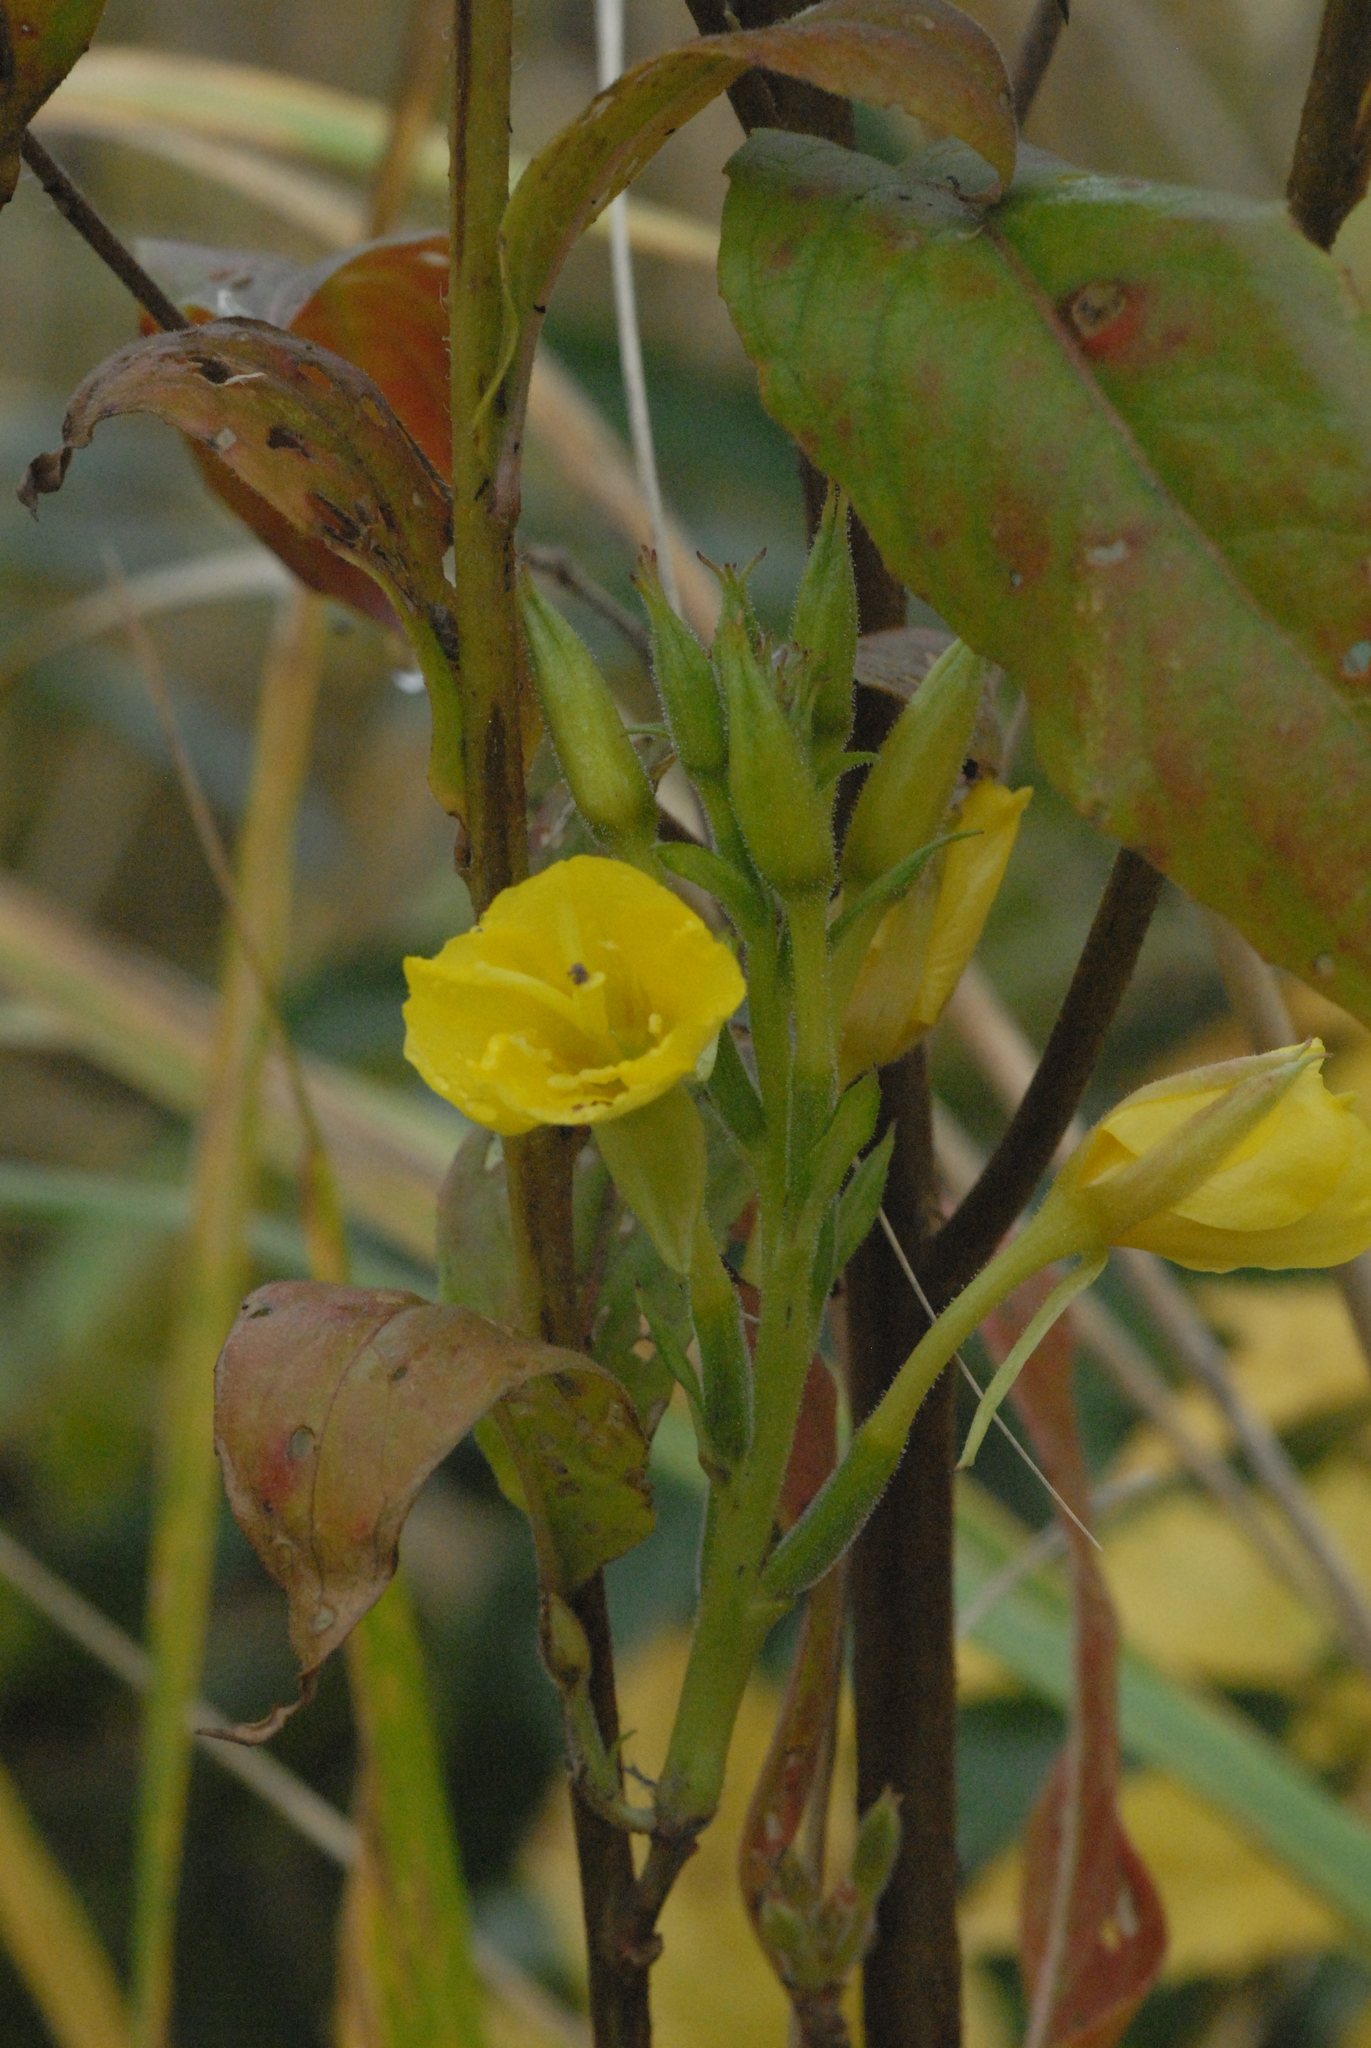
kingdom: Plantae
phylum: Tracheophyta
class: Magnoliopsida
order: Myrtales
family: Onagraceae
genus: Oenothera
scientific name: Oenothera biennis
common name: Common evening-primrose
